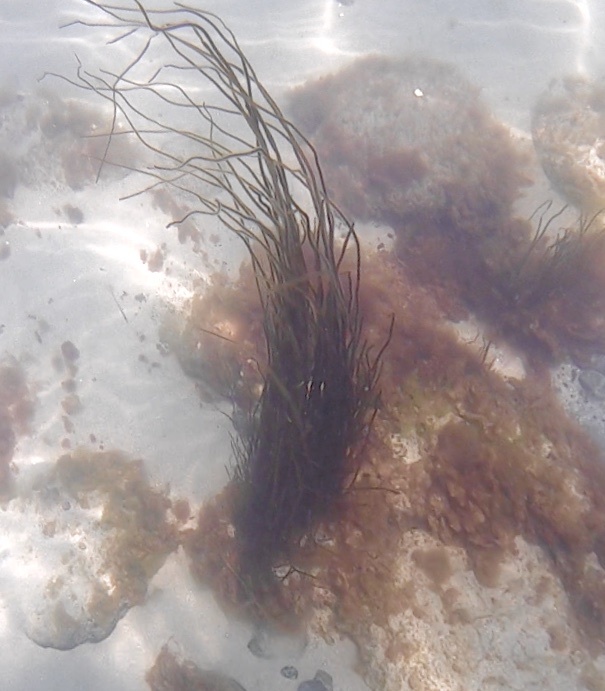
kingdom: Chromista
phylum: Ochrophyta
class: Phaeophyceae
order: Laminariales
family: Chordaceae
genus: Chorda
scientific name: Chorda filum
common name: Mermaid's tresses
